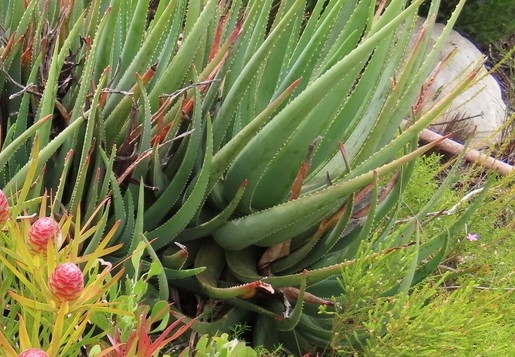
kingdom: Plantae
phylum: Tracheophyta
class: Liliopsida
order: Asparagales
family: Asphodelaceae
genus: Aloe
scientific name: Aloe succotrina
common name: Bombay aloe
